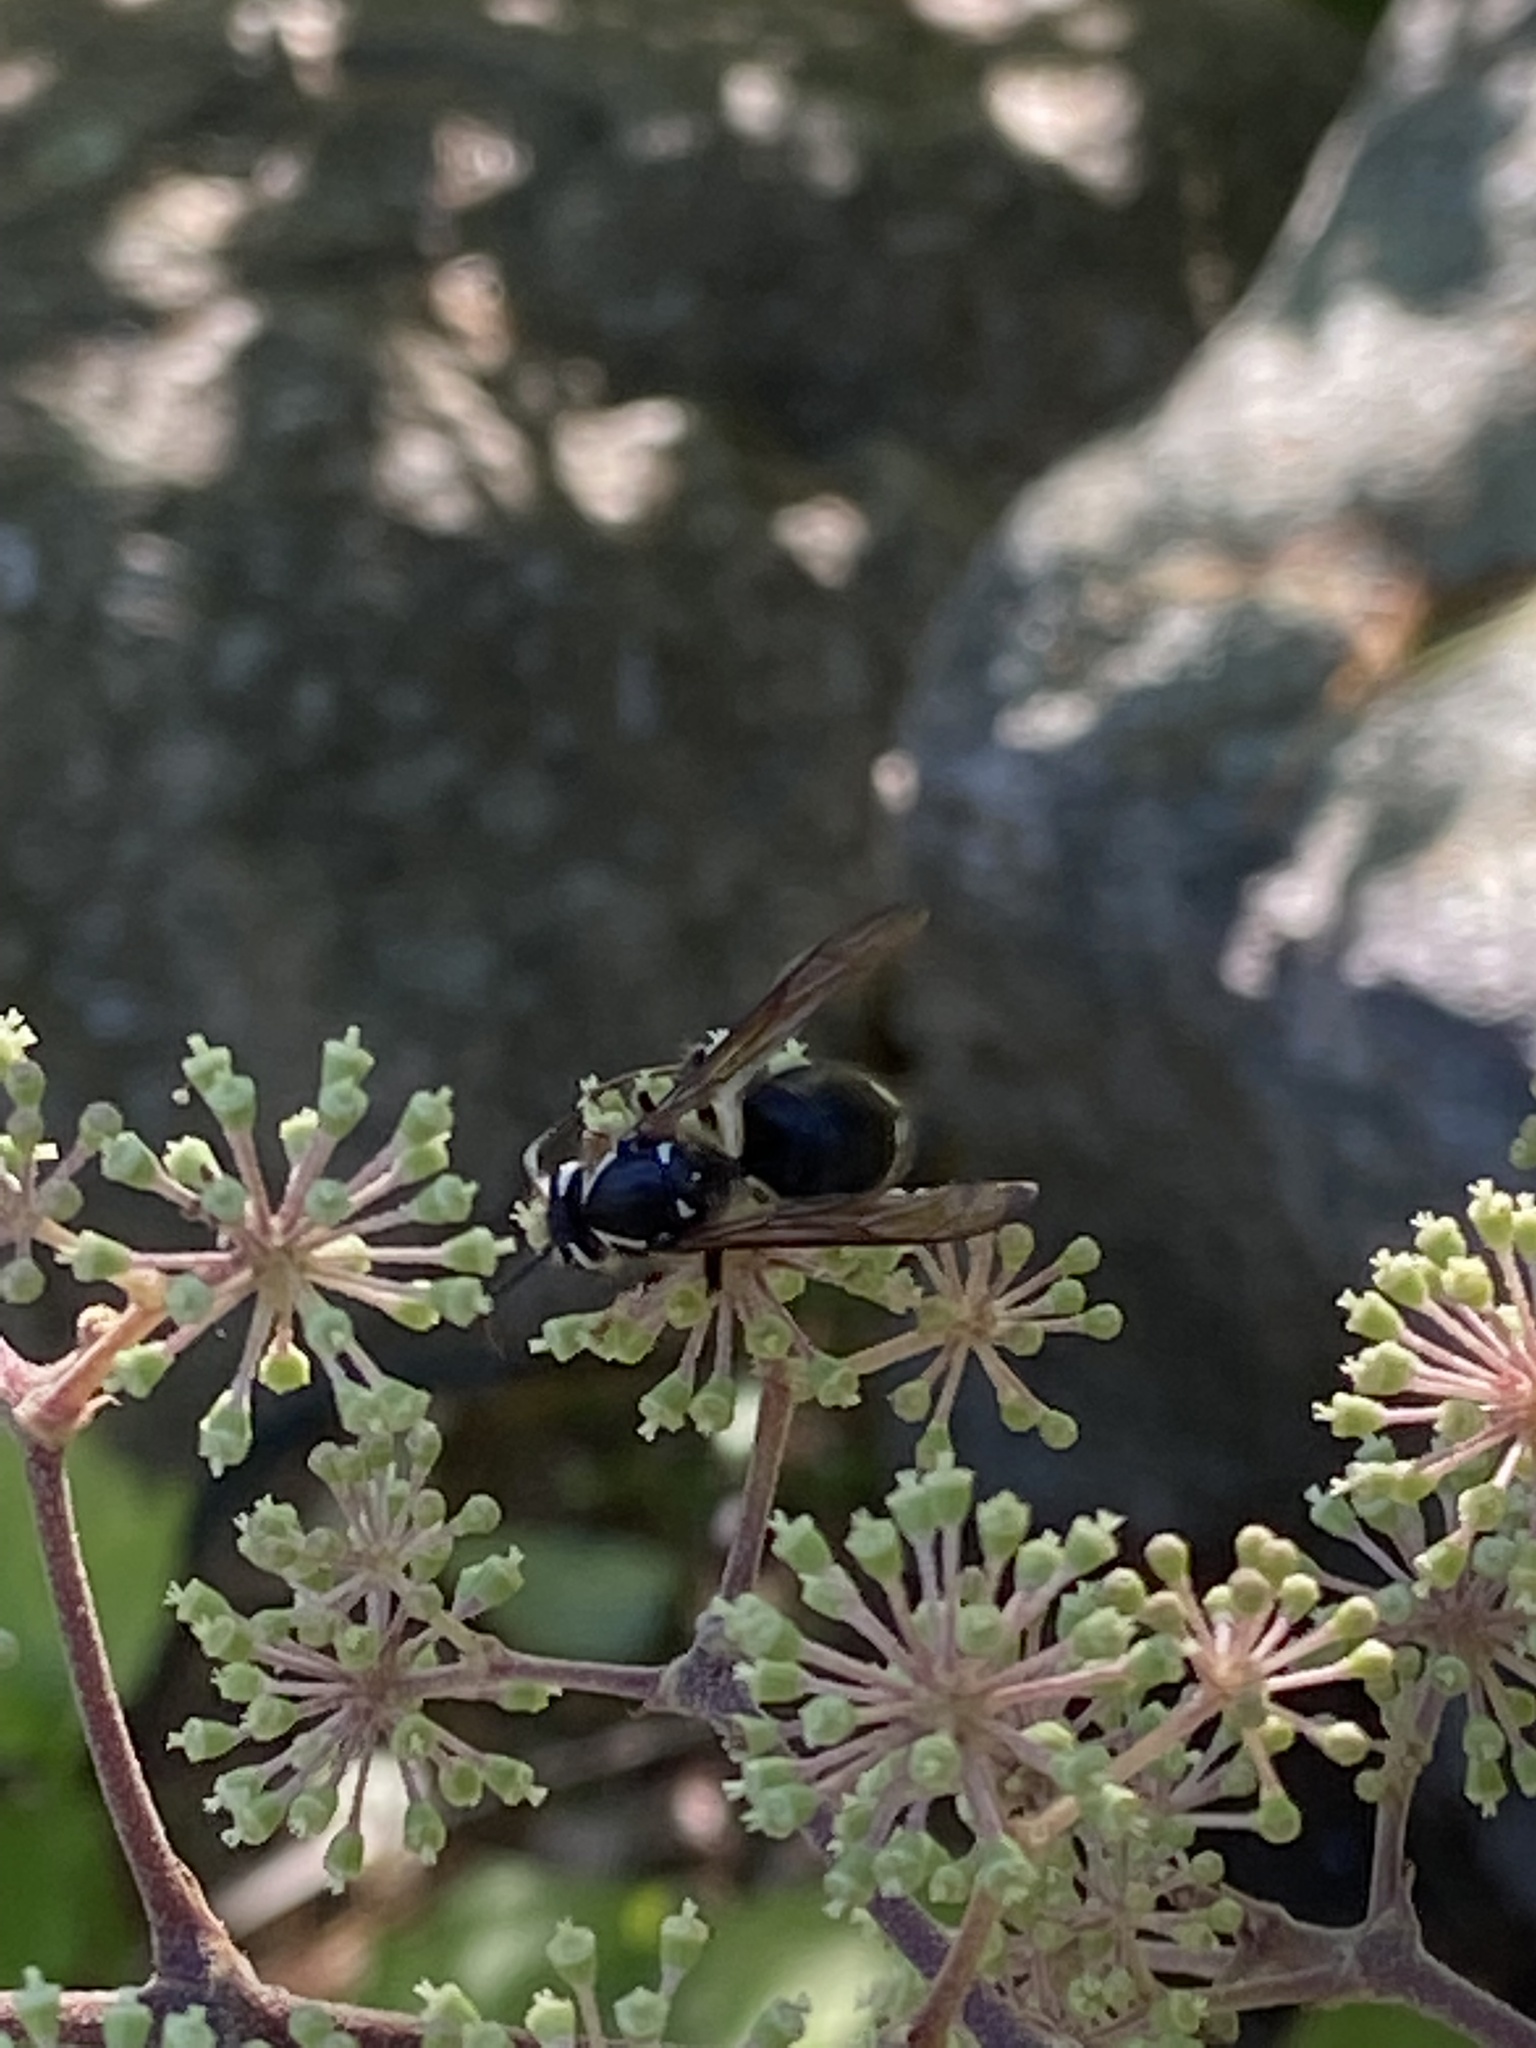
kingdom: Animalia
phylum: Arthropoda
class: Insecta
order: Hymenoptera
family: Vespidae
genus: Dolichovespula
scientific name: Dolichovespula maculata
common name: Bald-faced hornet
